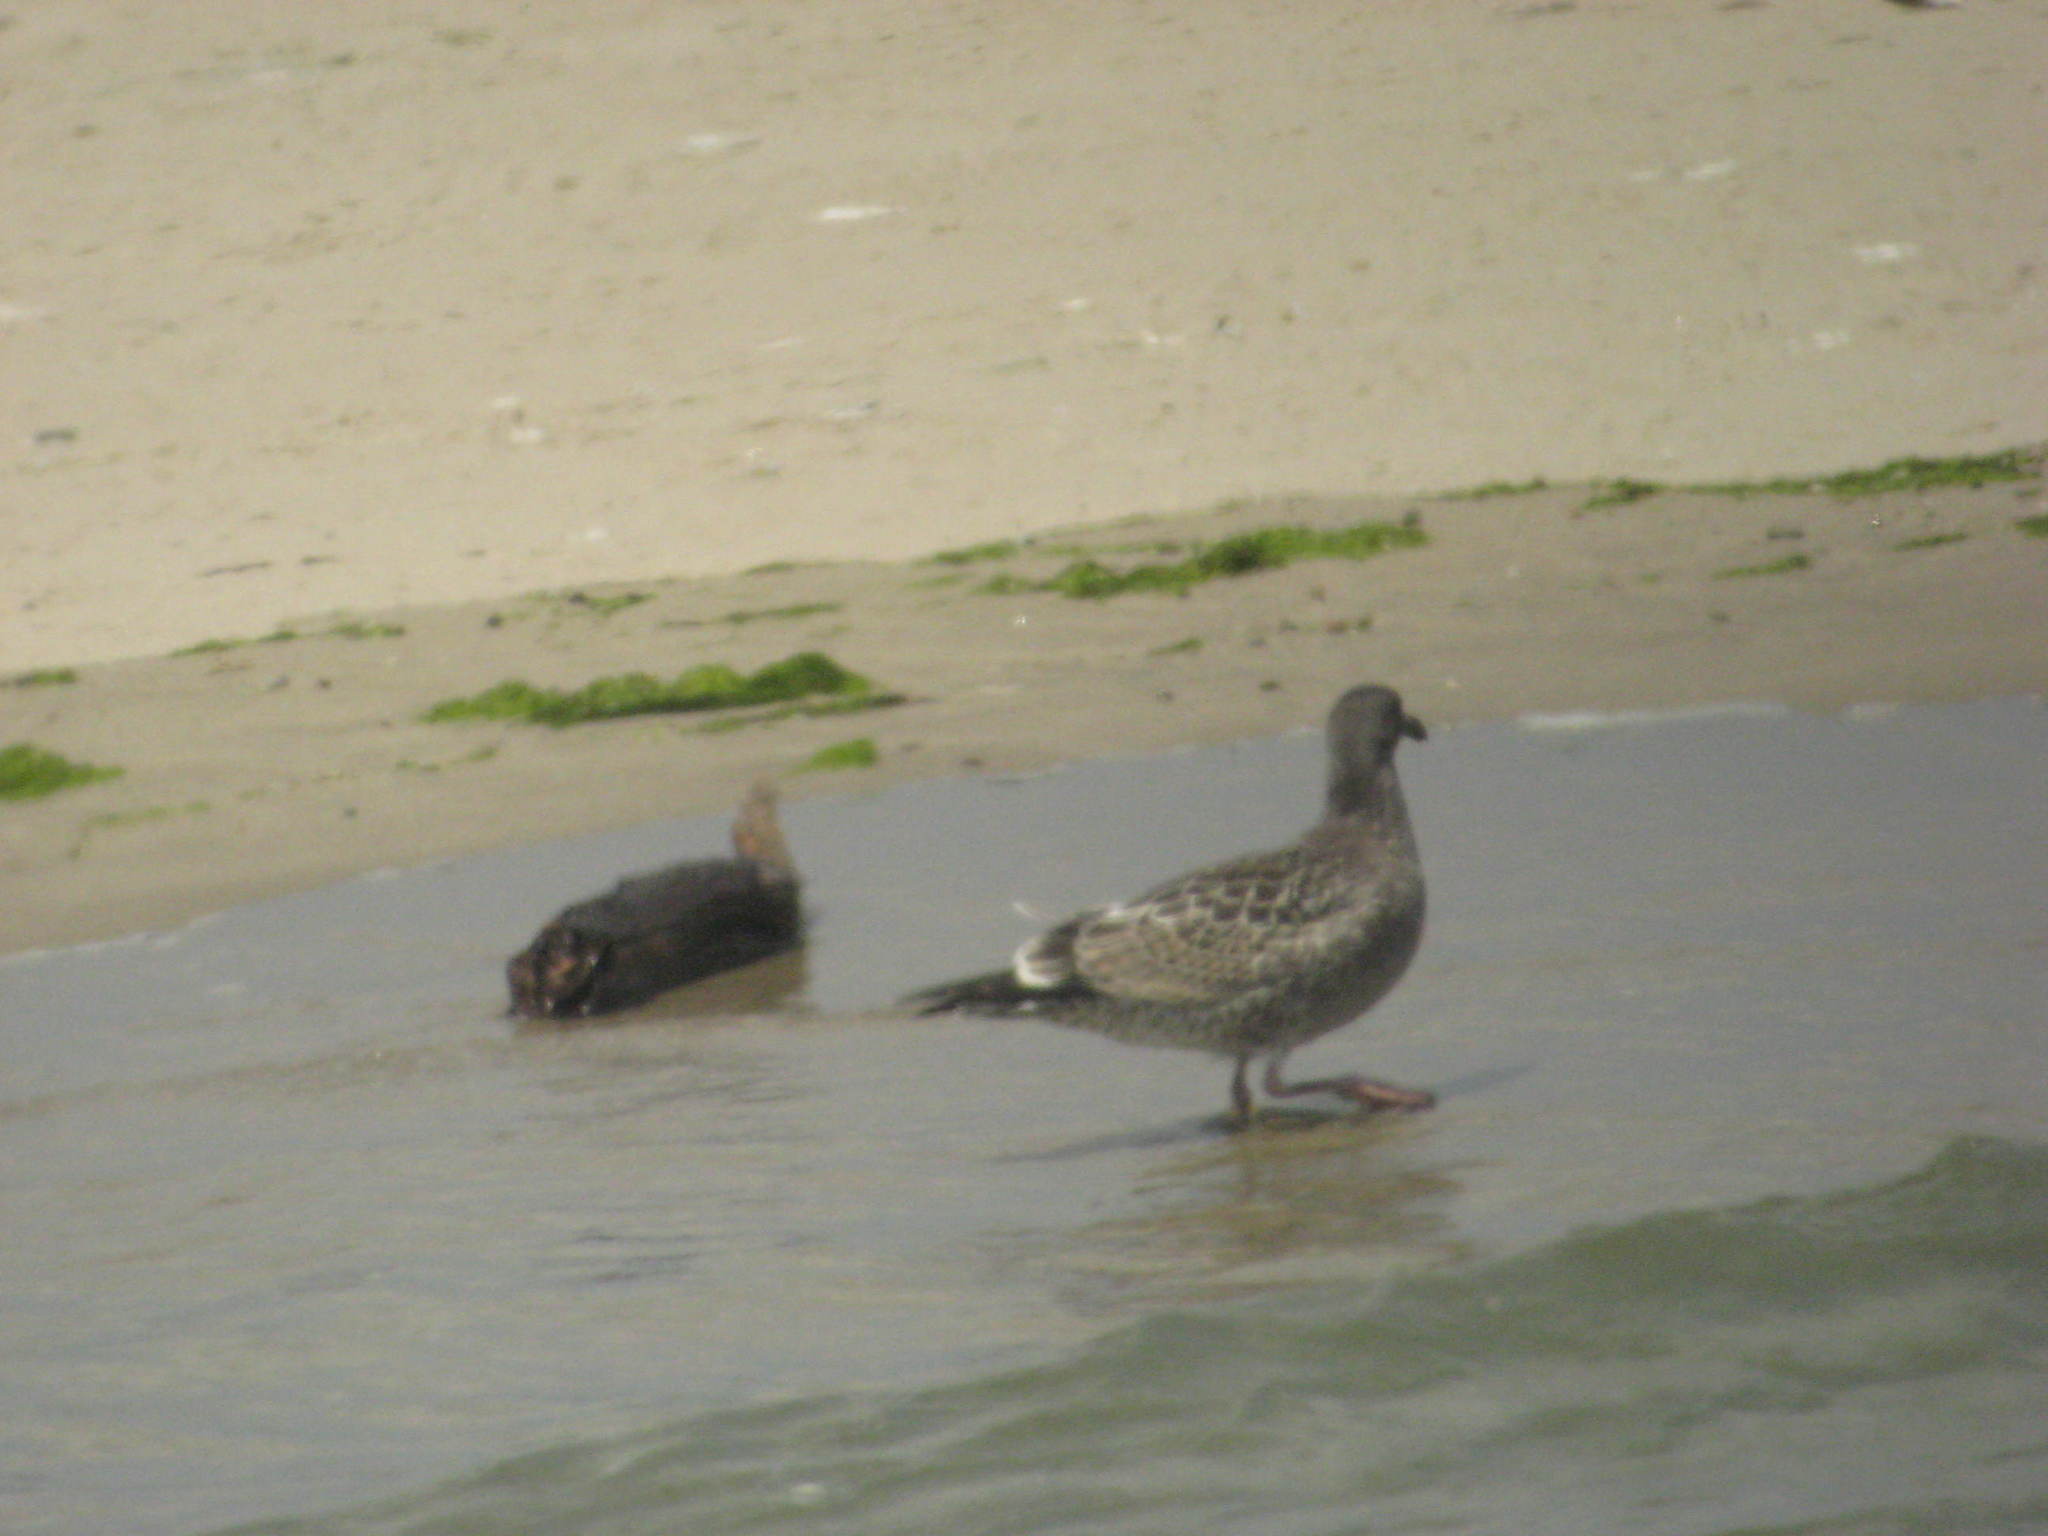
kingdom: Animalia
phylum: Chordata
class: Aves
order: Charadriiformes
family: Laridae
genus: Larus
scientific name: Larus occidentalis
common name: Western gull
